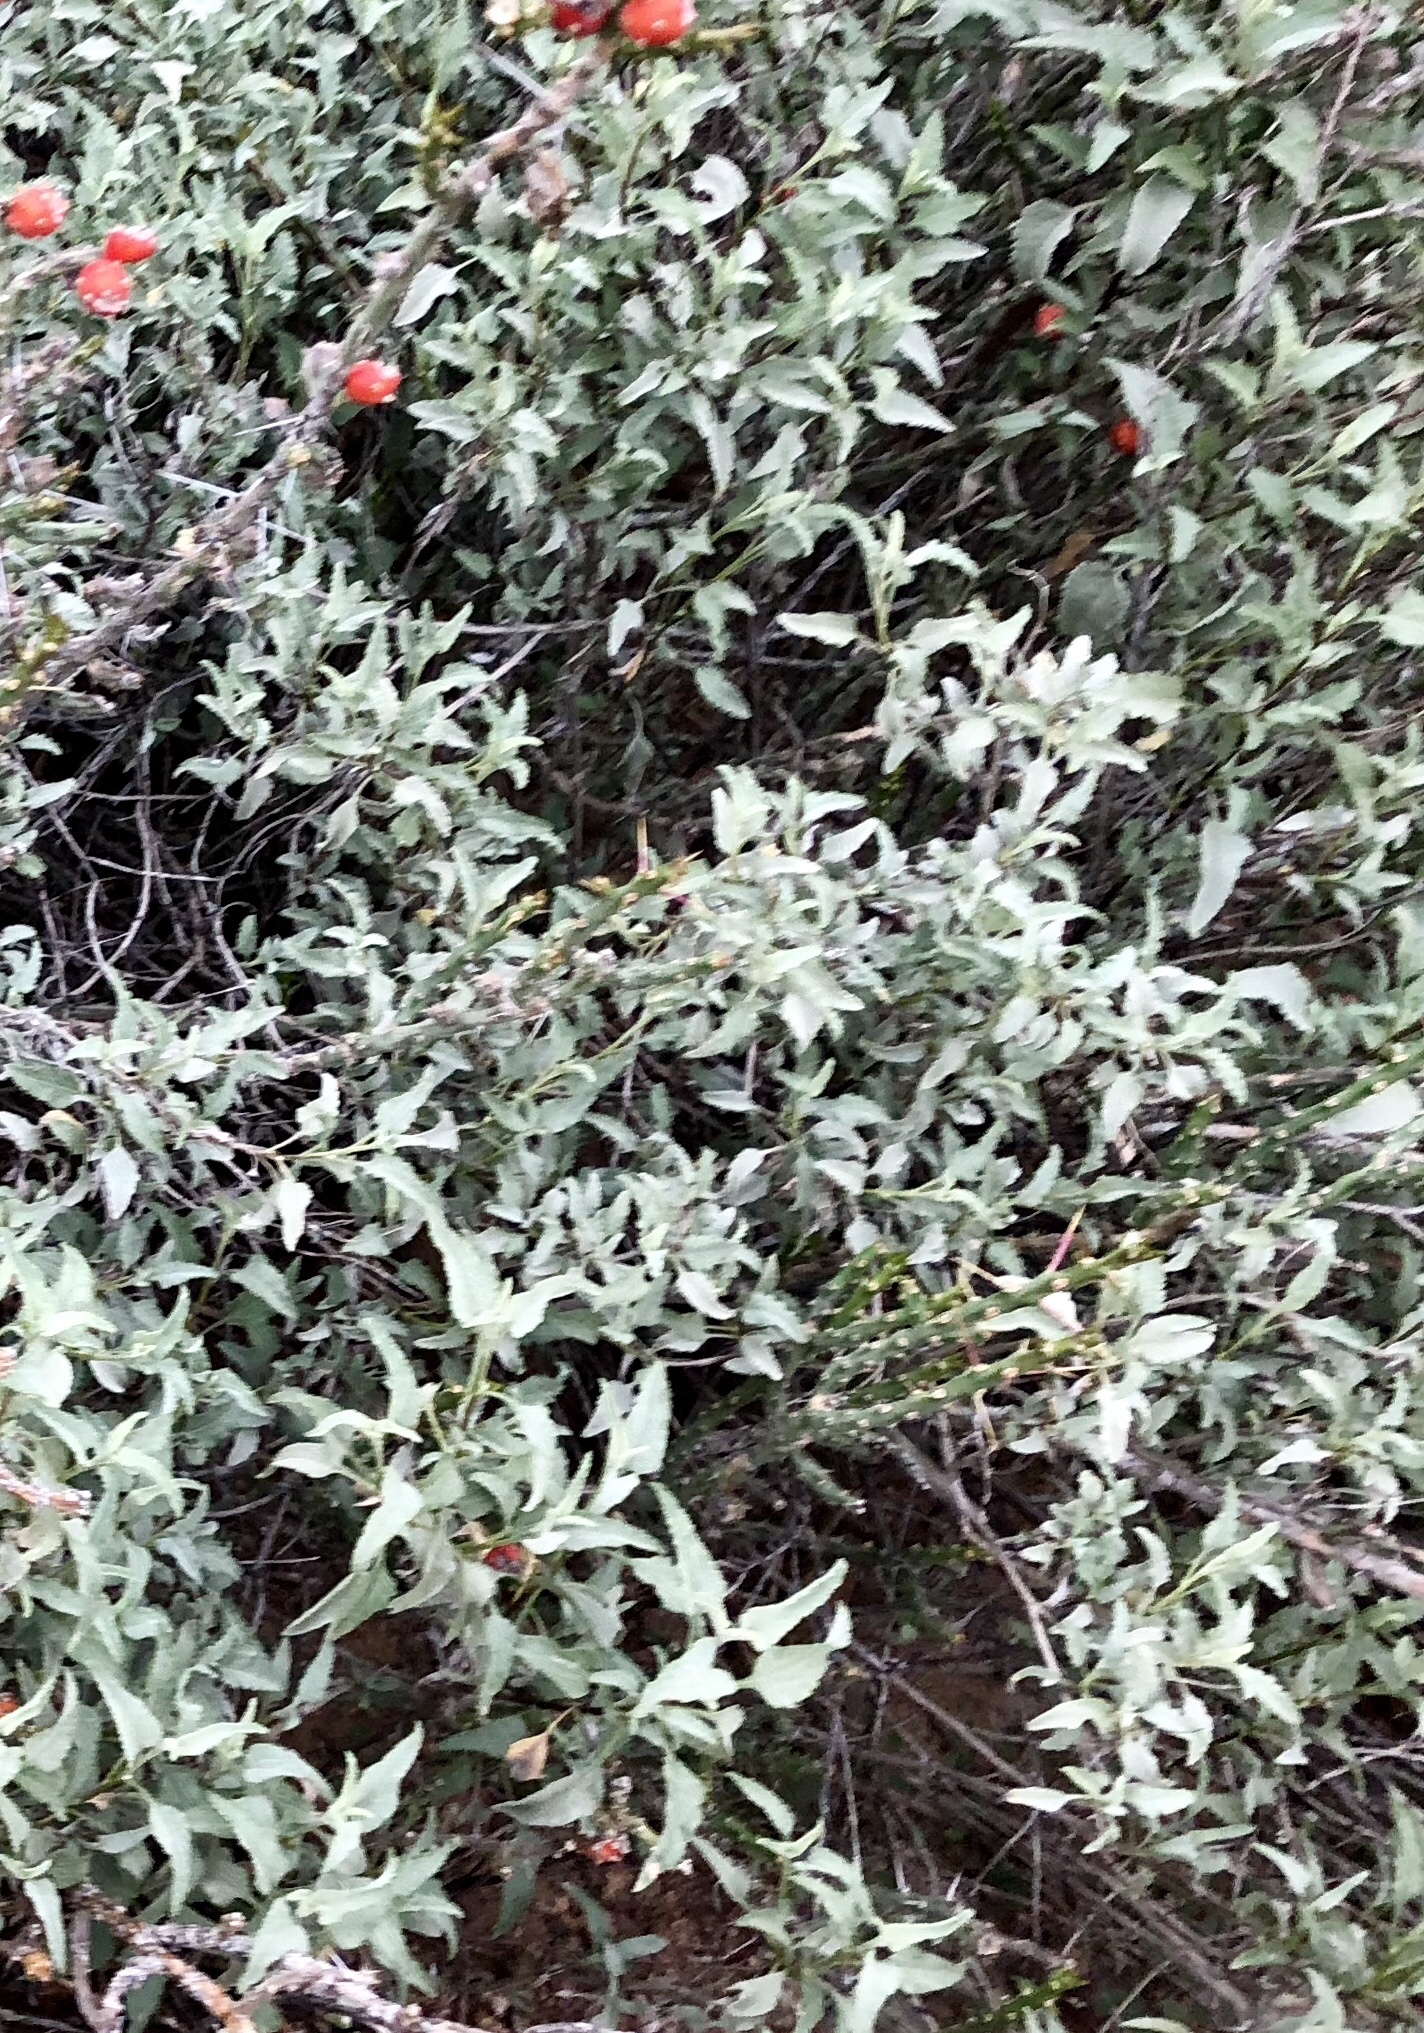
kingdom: Plantae
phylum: Tracheophyta
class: Magnoliopsida
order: Asterales
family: Asteraceae
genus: Ambrosia
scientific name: Ambrosia deltoidea
